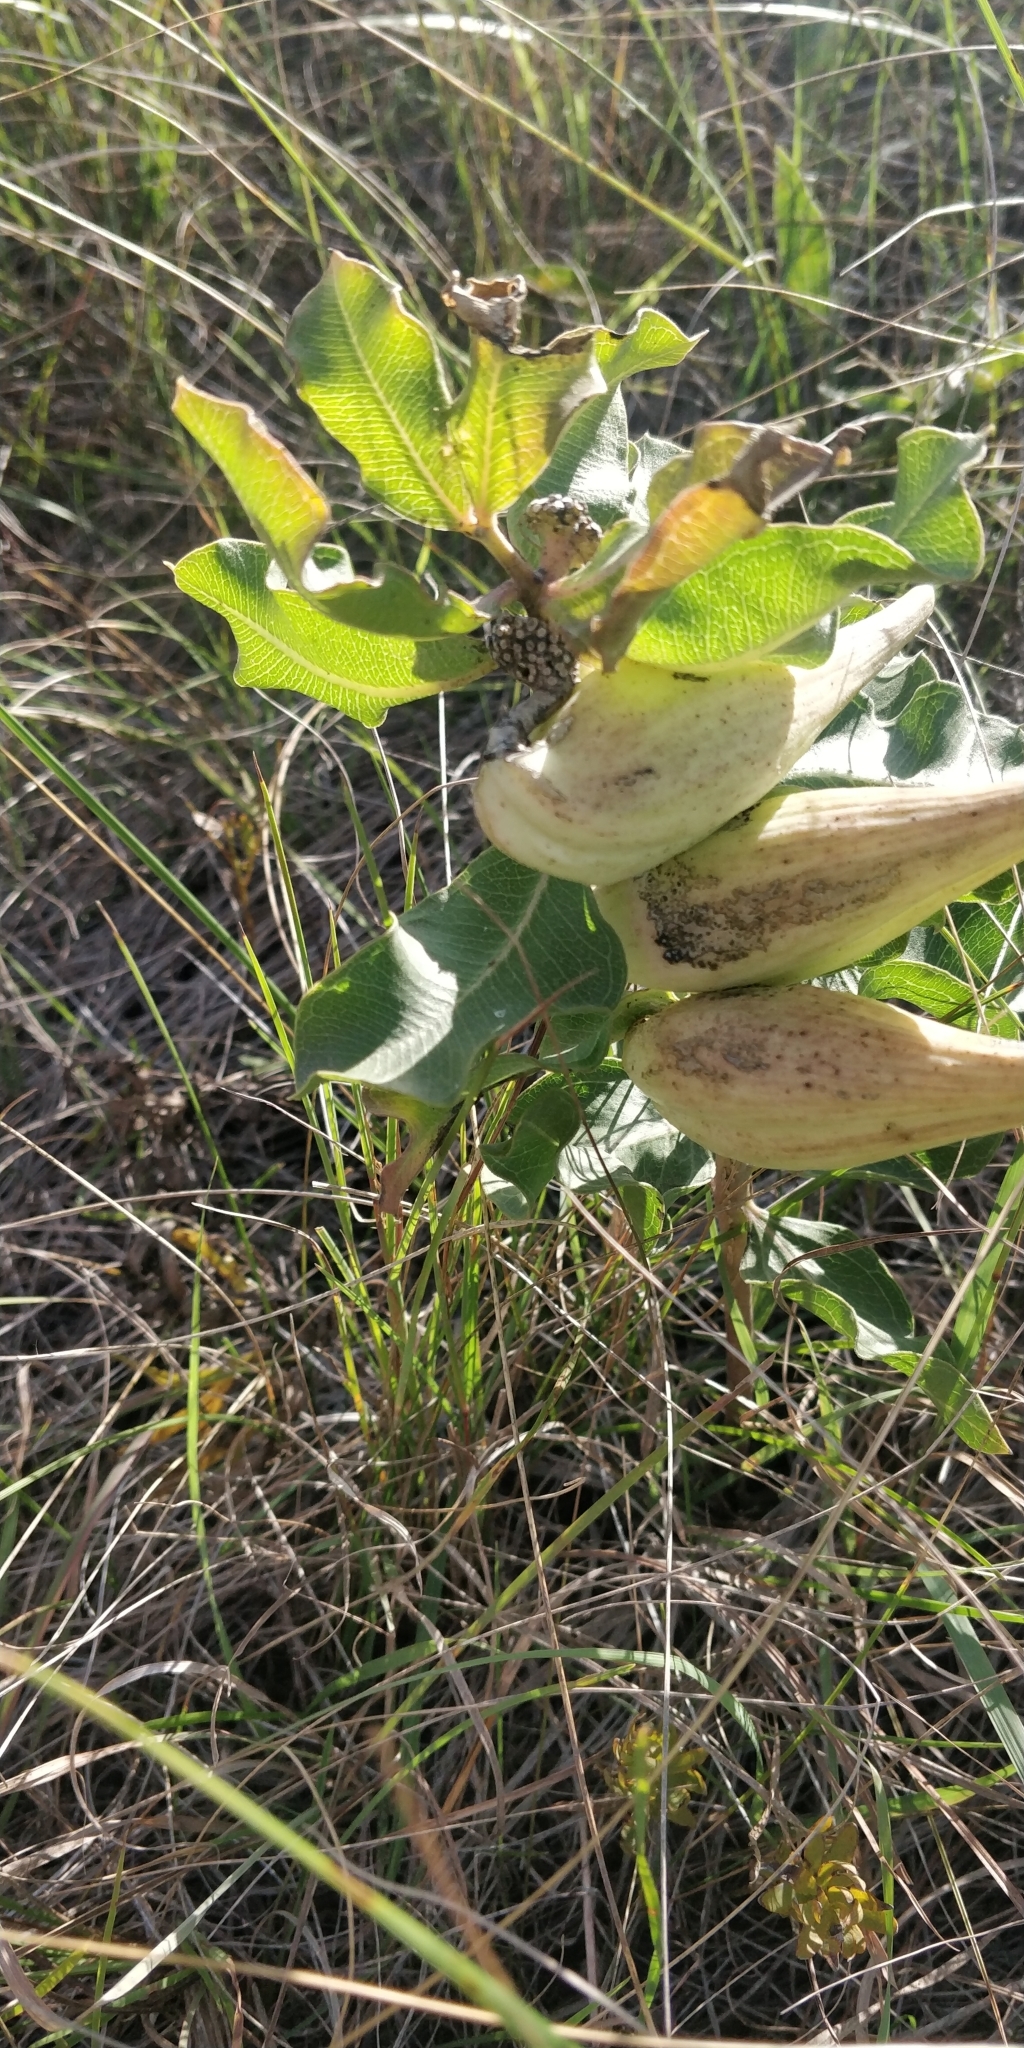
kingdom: Plantae
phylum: Tracheophyta
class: Magnoliopsida
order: Gentianales
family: Apocynaceae
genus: Asclepias
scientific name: Asclepias viridiflora
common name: Green comet milkweed
